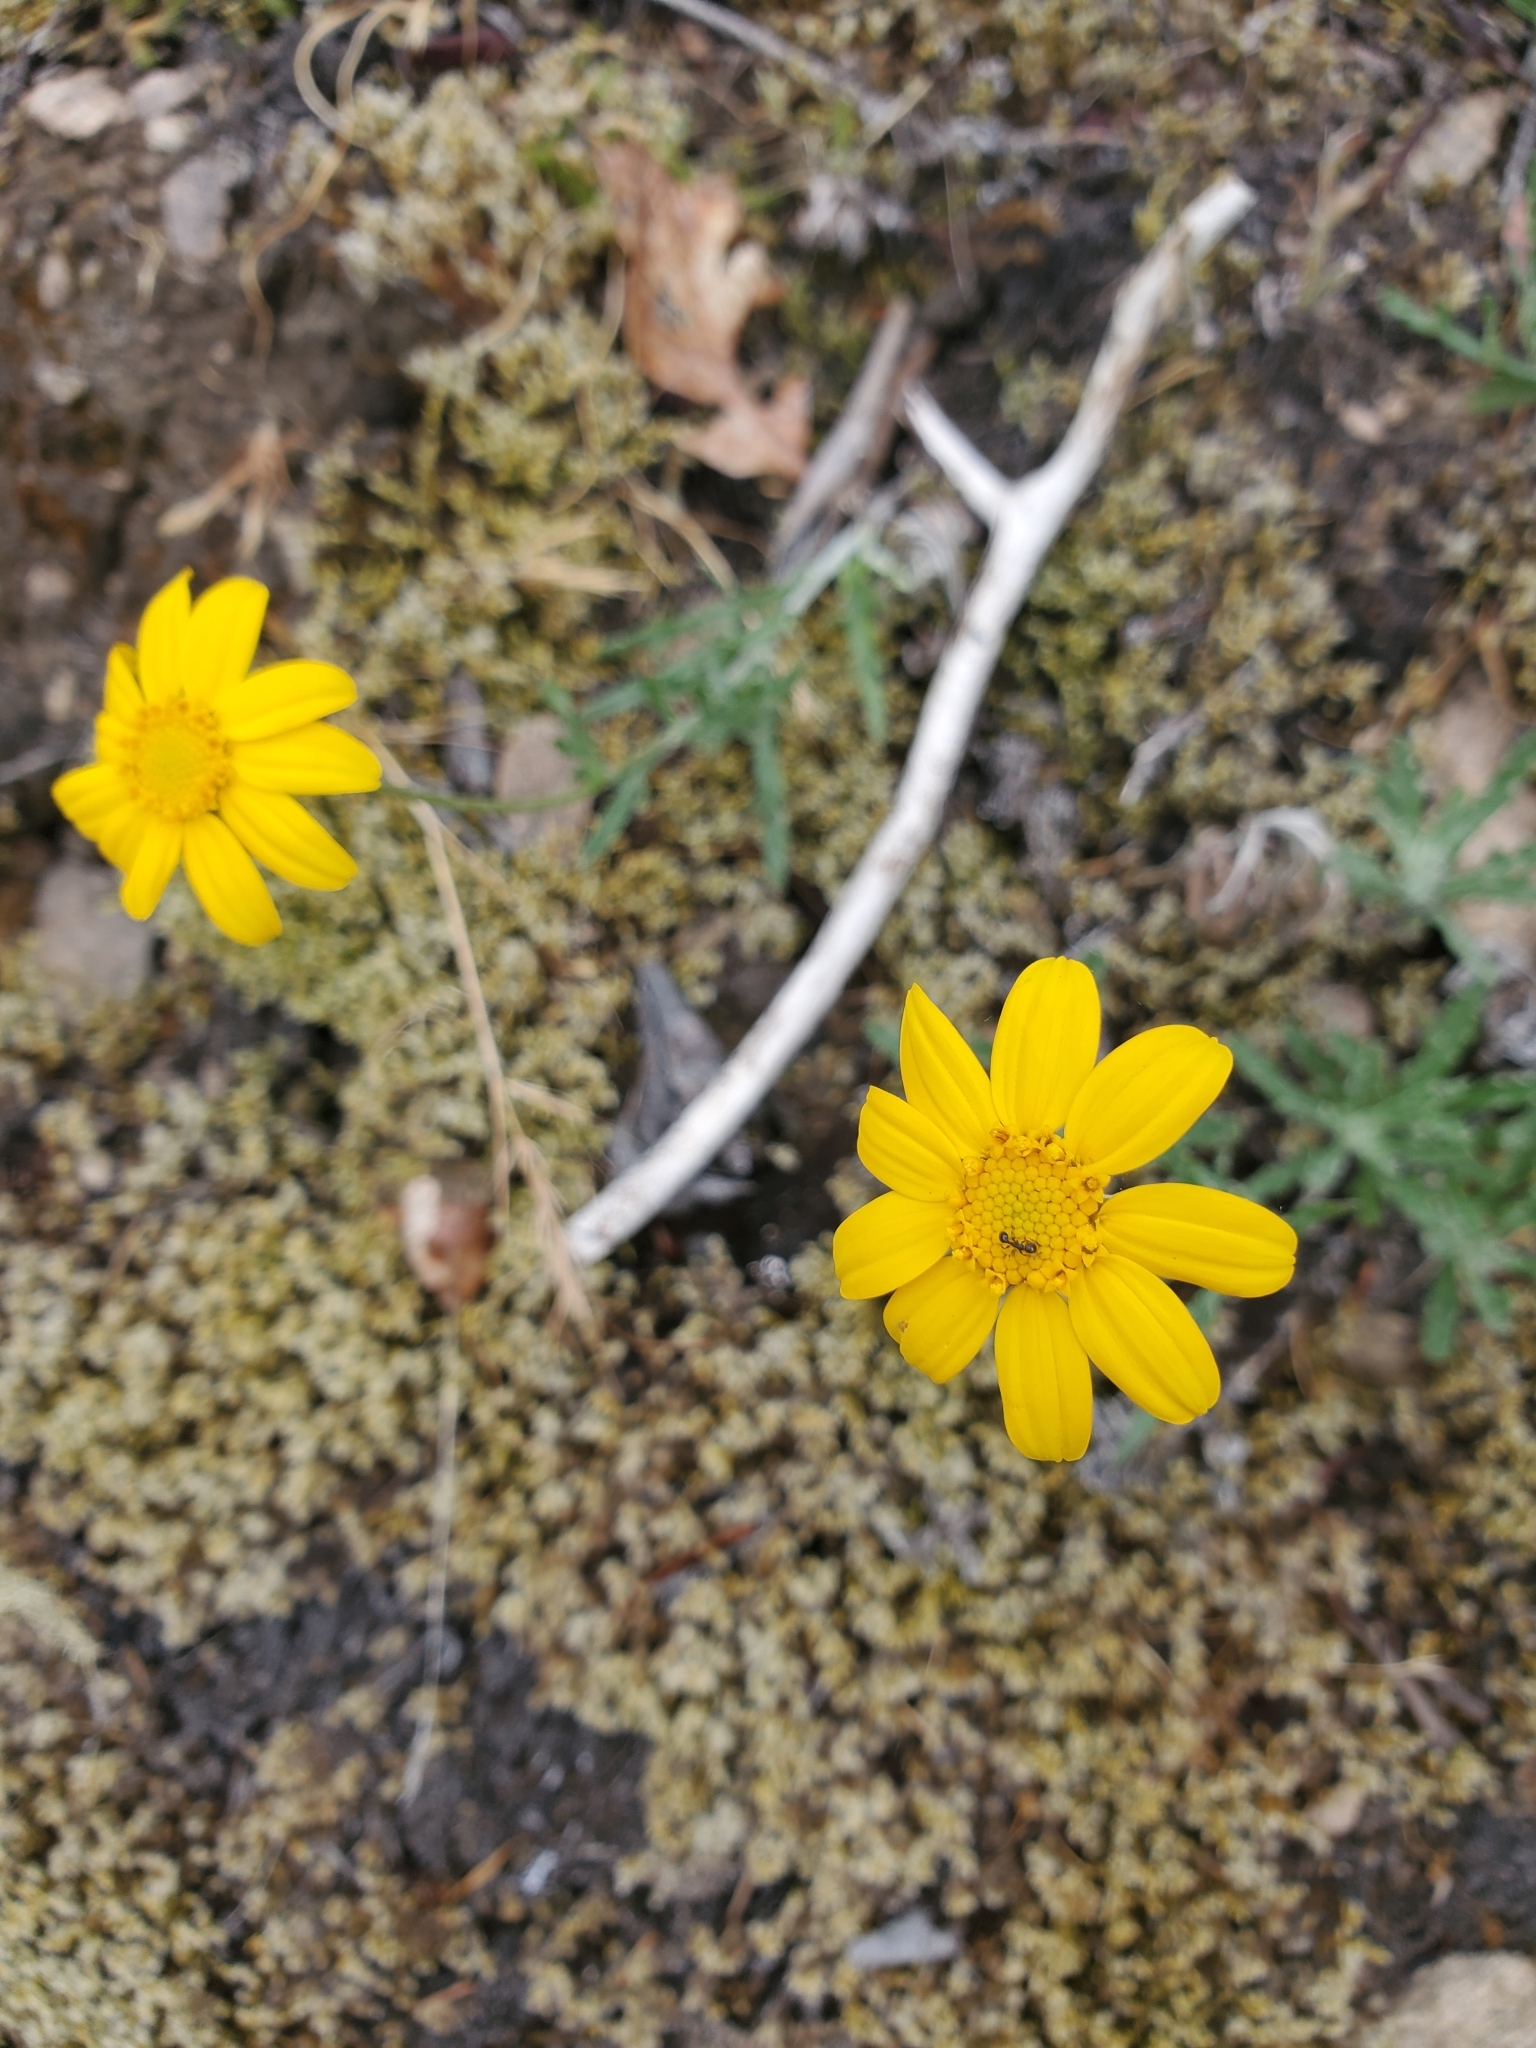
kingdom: Plantae
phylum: Tracheophyta
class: Magnoliopsida
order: Asterales
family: Asteraceae
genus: Eriophyllum
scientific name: Eriophyllum lanatum
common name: Common woolly-sunflower
